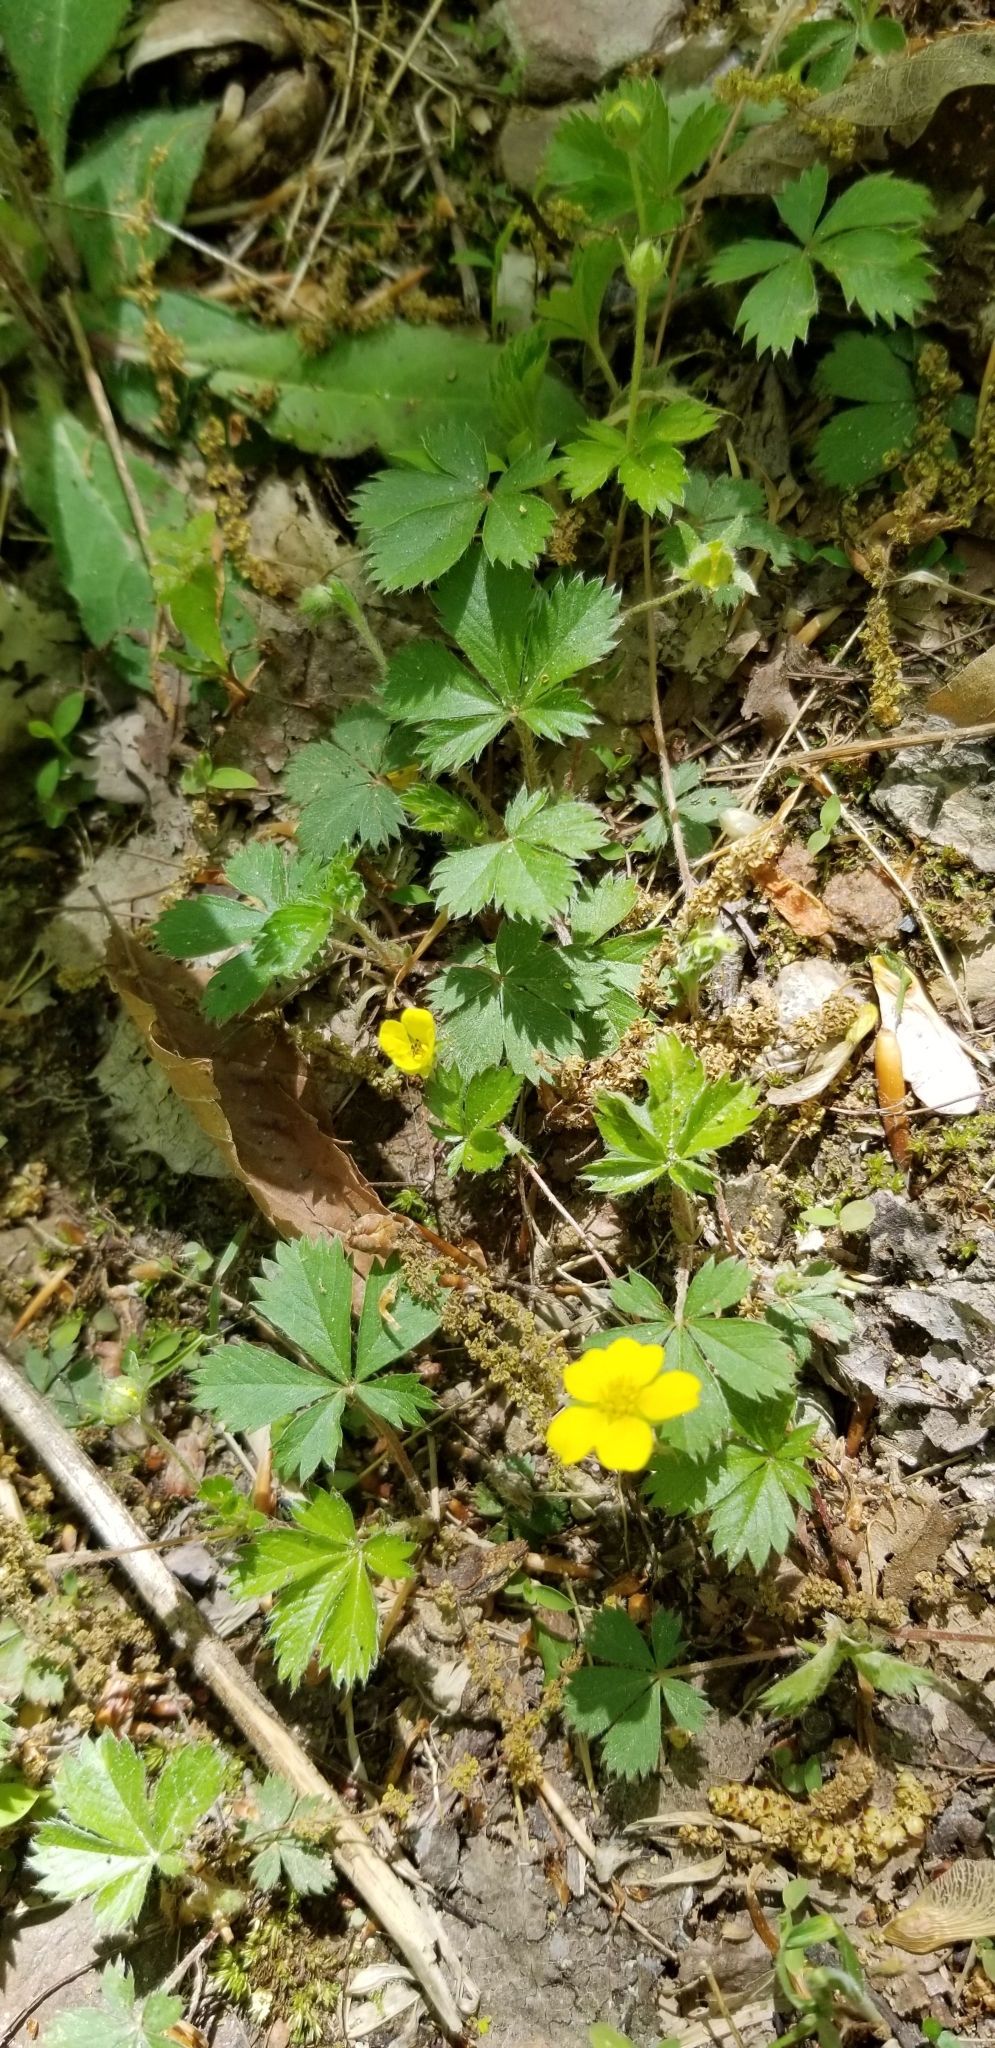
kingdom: Plantae
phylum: Tracheophyta
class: Magnoliopsida
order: Rosales
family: Rosaceae
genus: Potentilla
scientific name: Potentilla canadensis
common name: Canada cinquefoil
